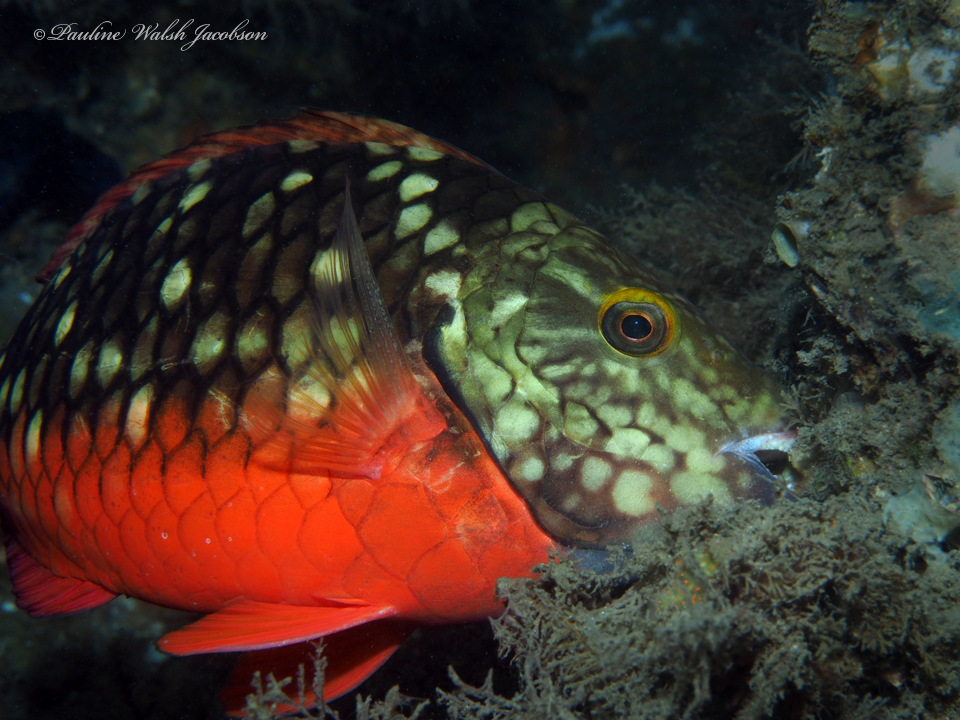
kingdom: Animalia
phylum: Chordata
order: Perciformes
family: Scaridae
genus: Sparisoma
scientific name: Sparisoma viride
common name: Stoplight parrotfish
